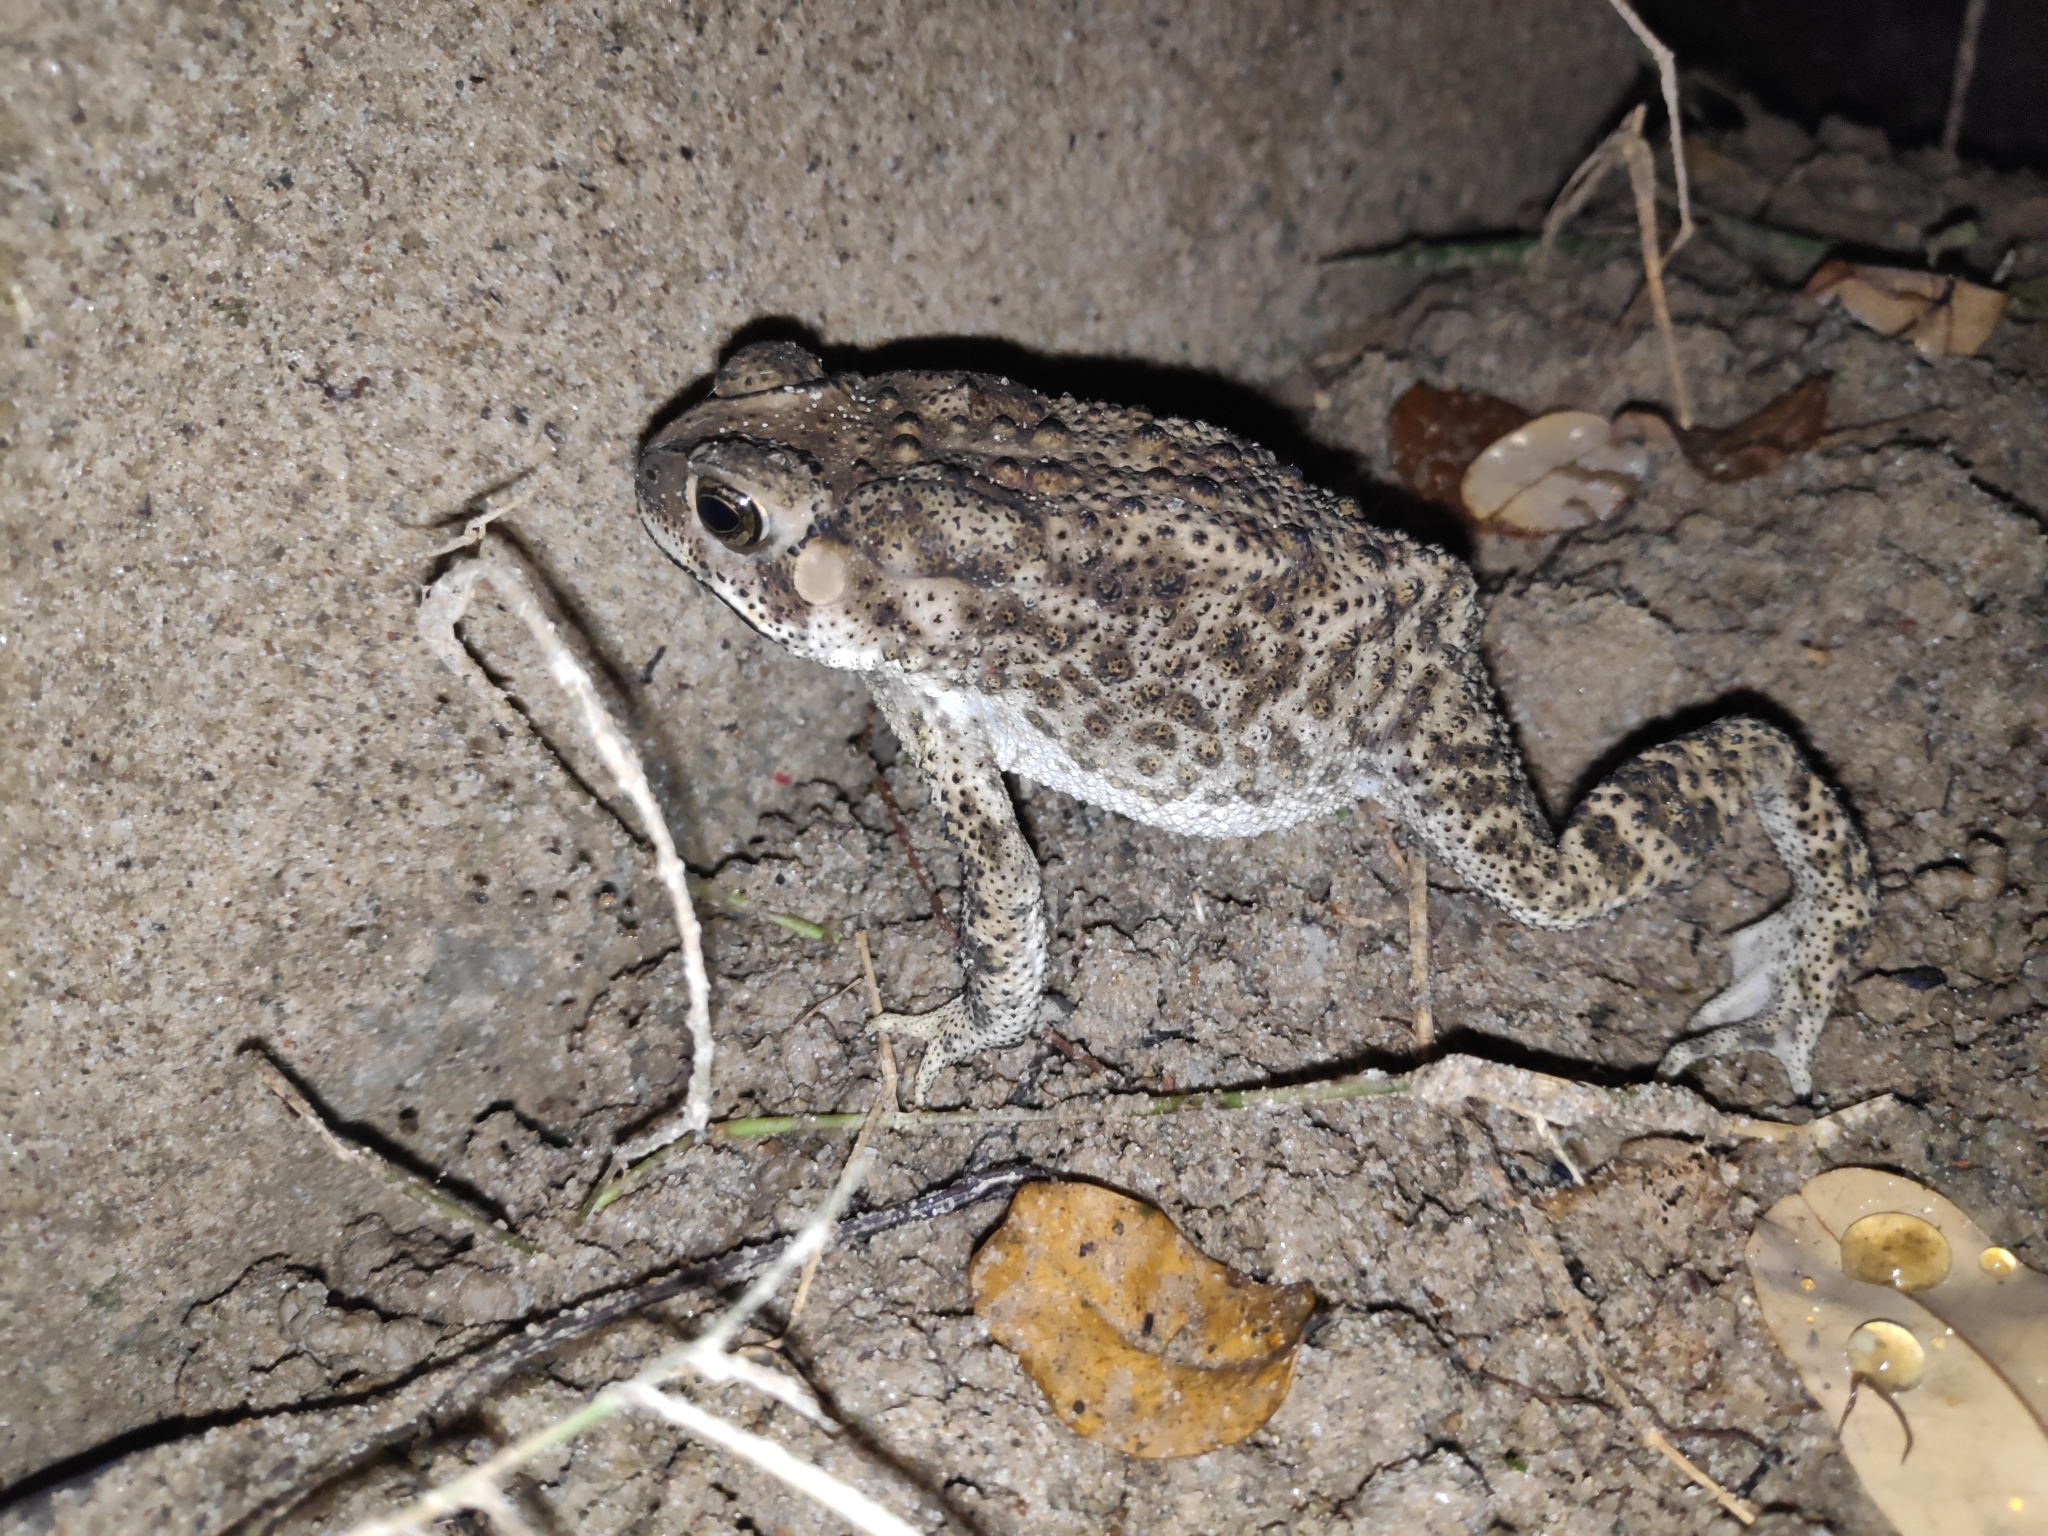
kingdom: Animalia
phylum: Chordata
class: Amphibia
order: Anura
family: Bufonidae
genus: Duttaphrynus
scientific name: Duttaphrynus melanostictus
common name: Common sunda toad
